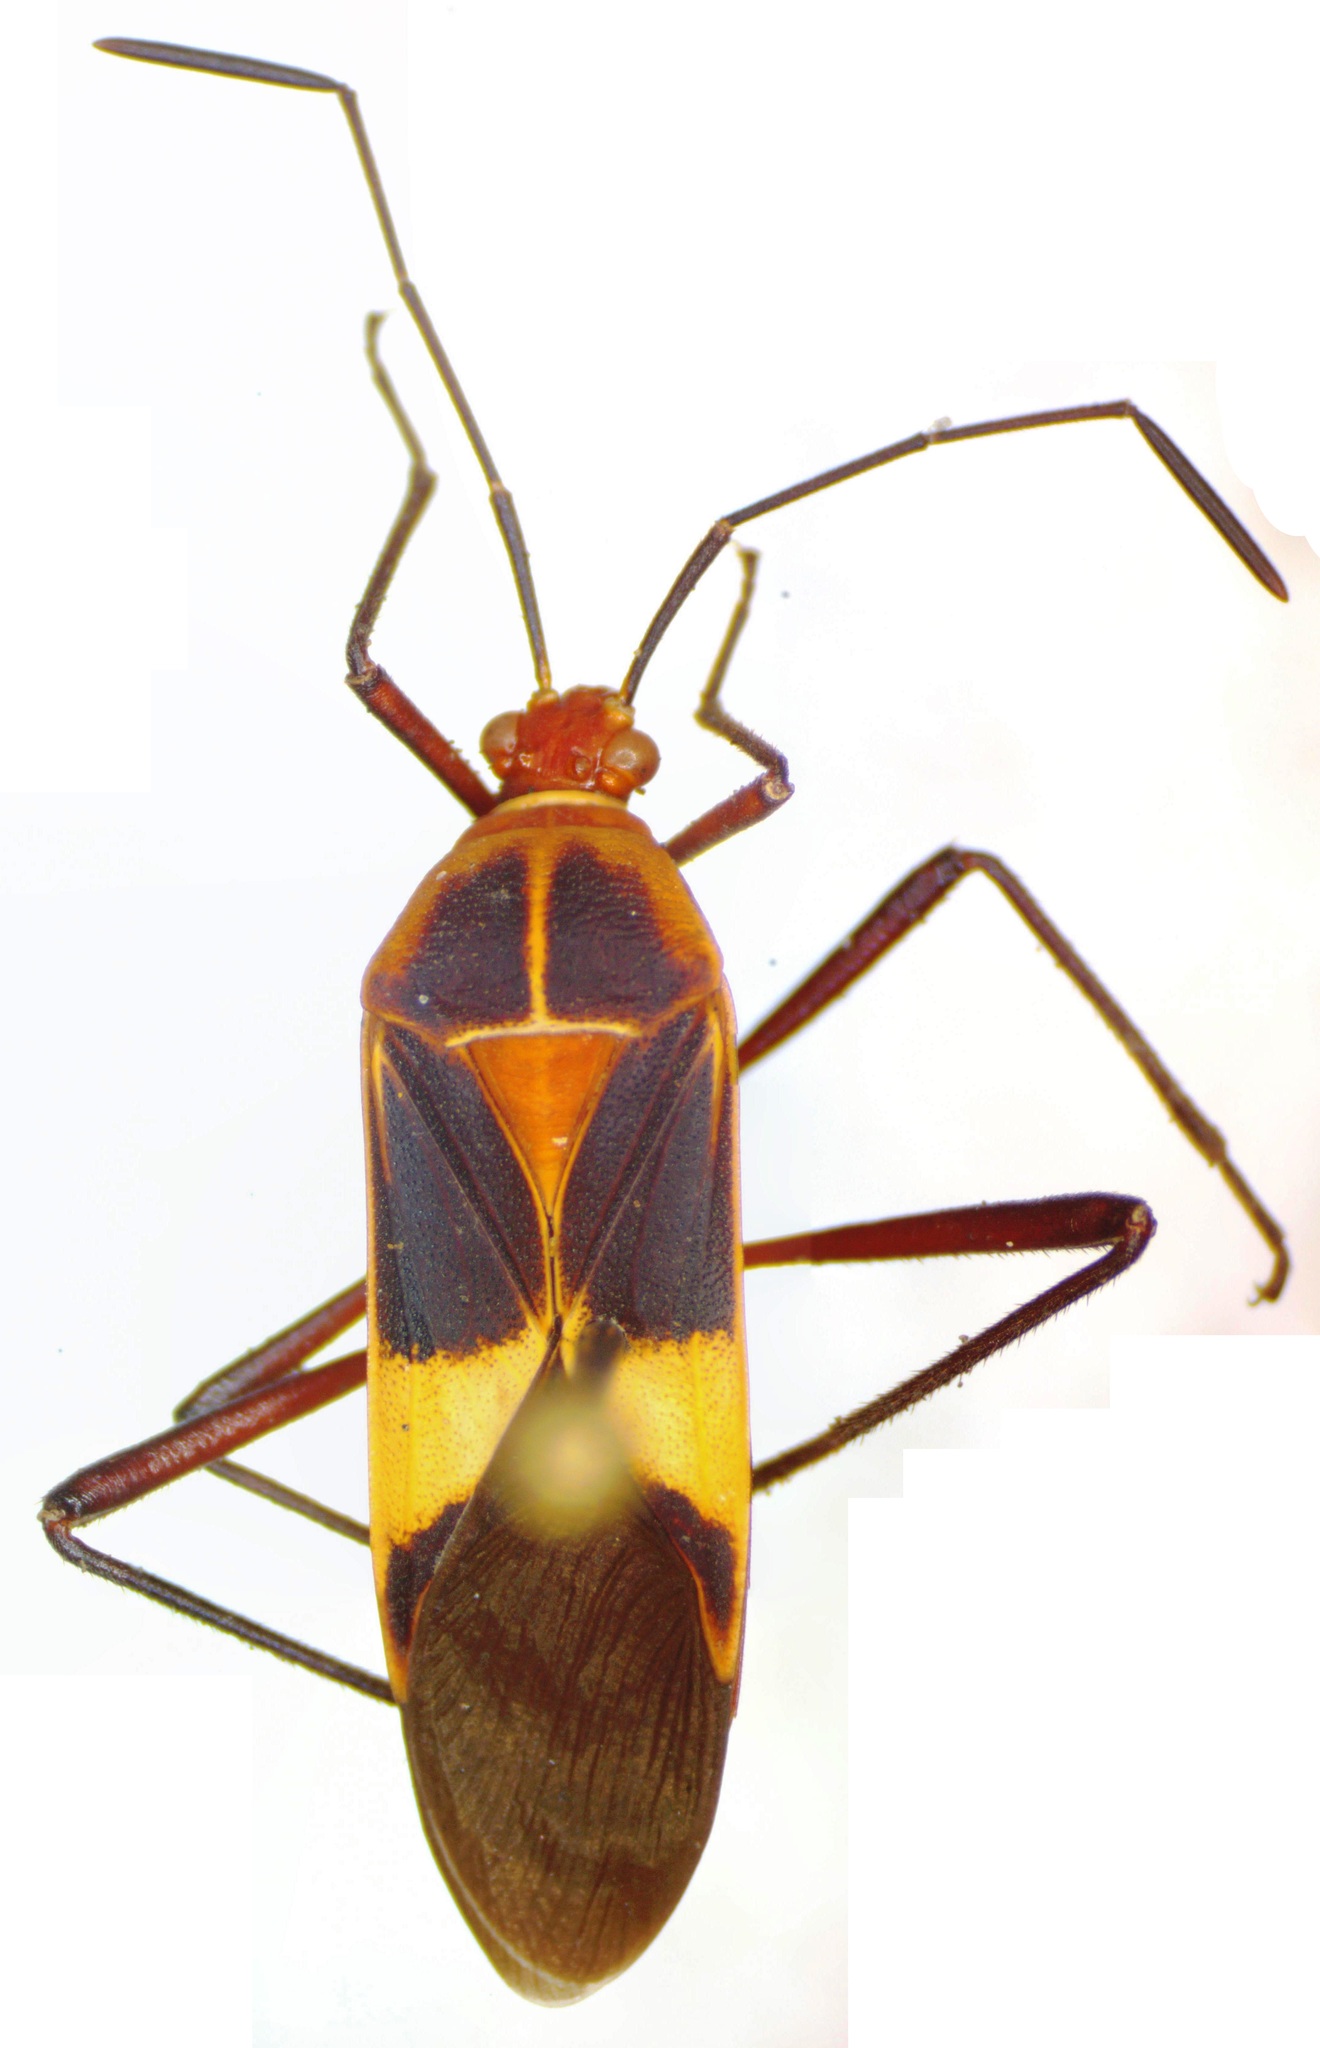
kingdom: Animalia
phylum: Arthropoda
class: Insecta
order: Hemiptera
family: Coreidae
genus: Hypselonotus
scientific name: Hypselonotus interruptus
